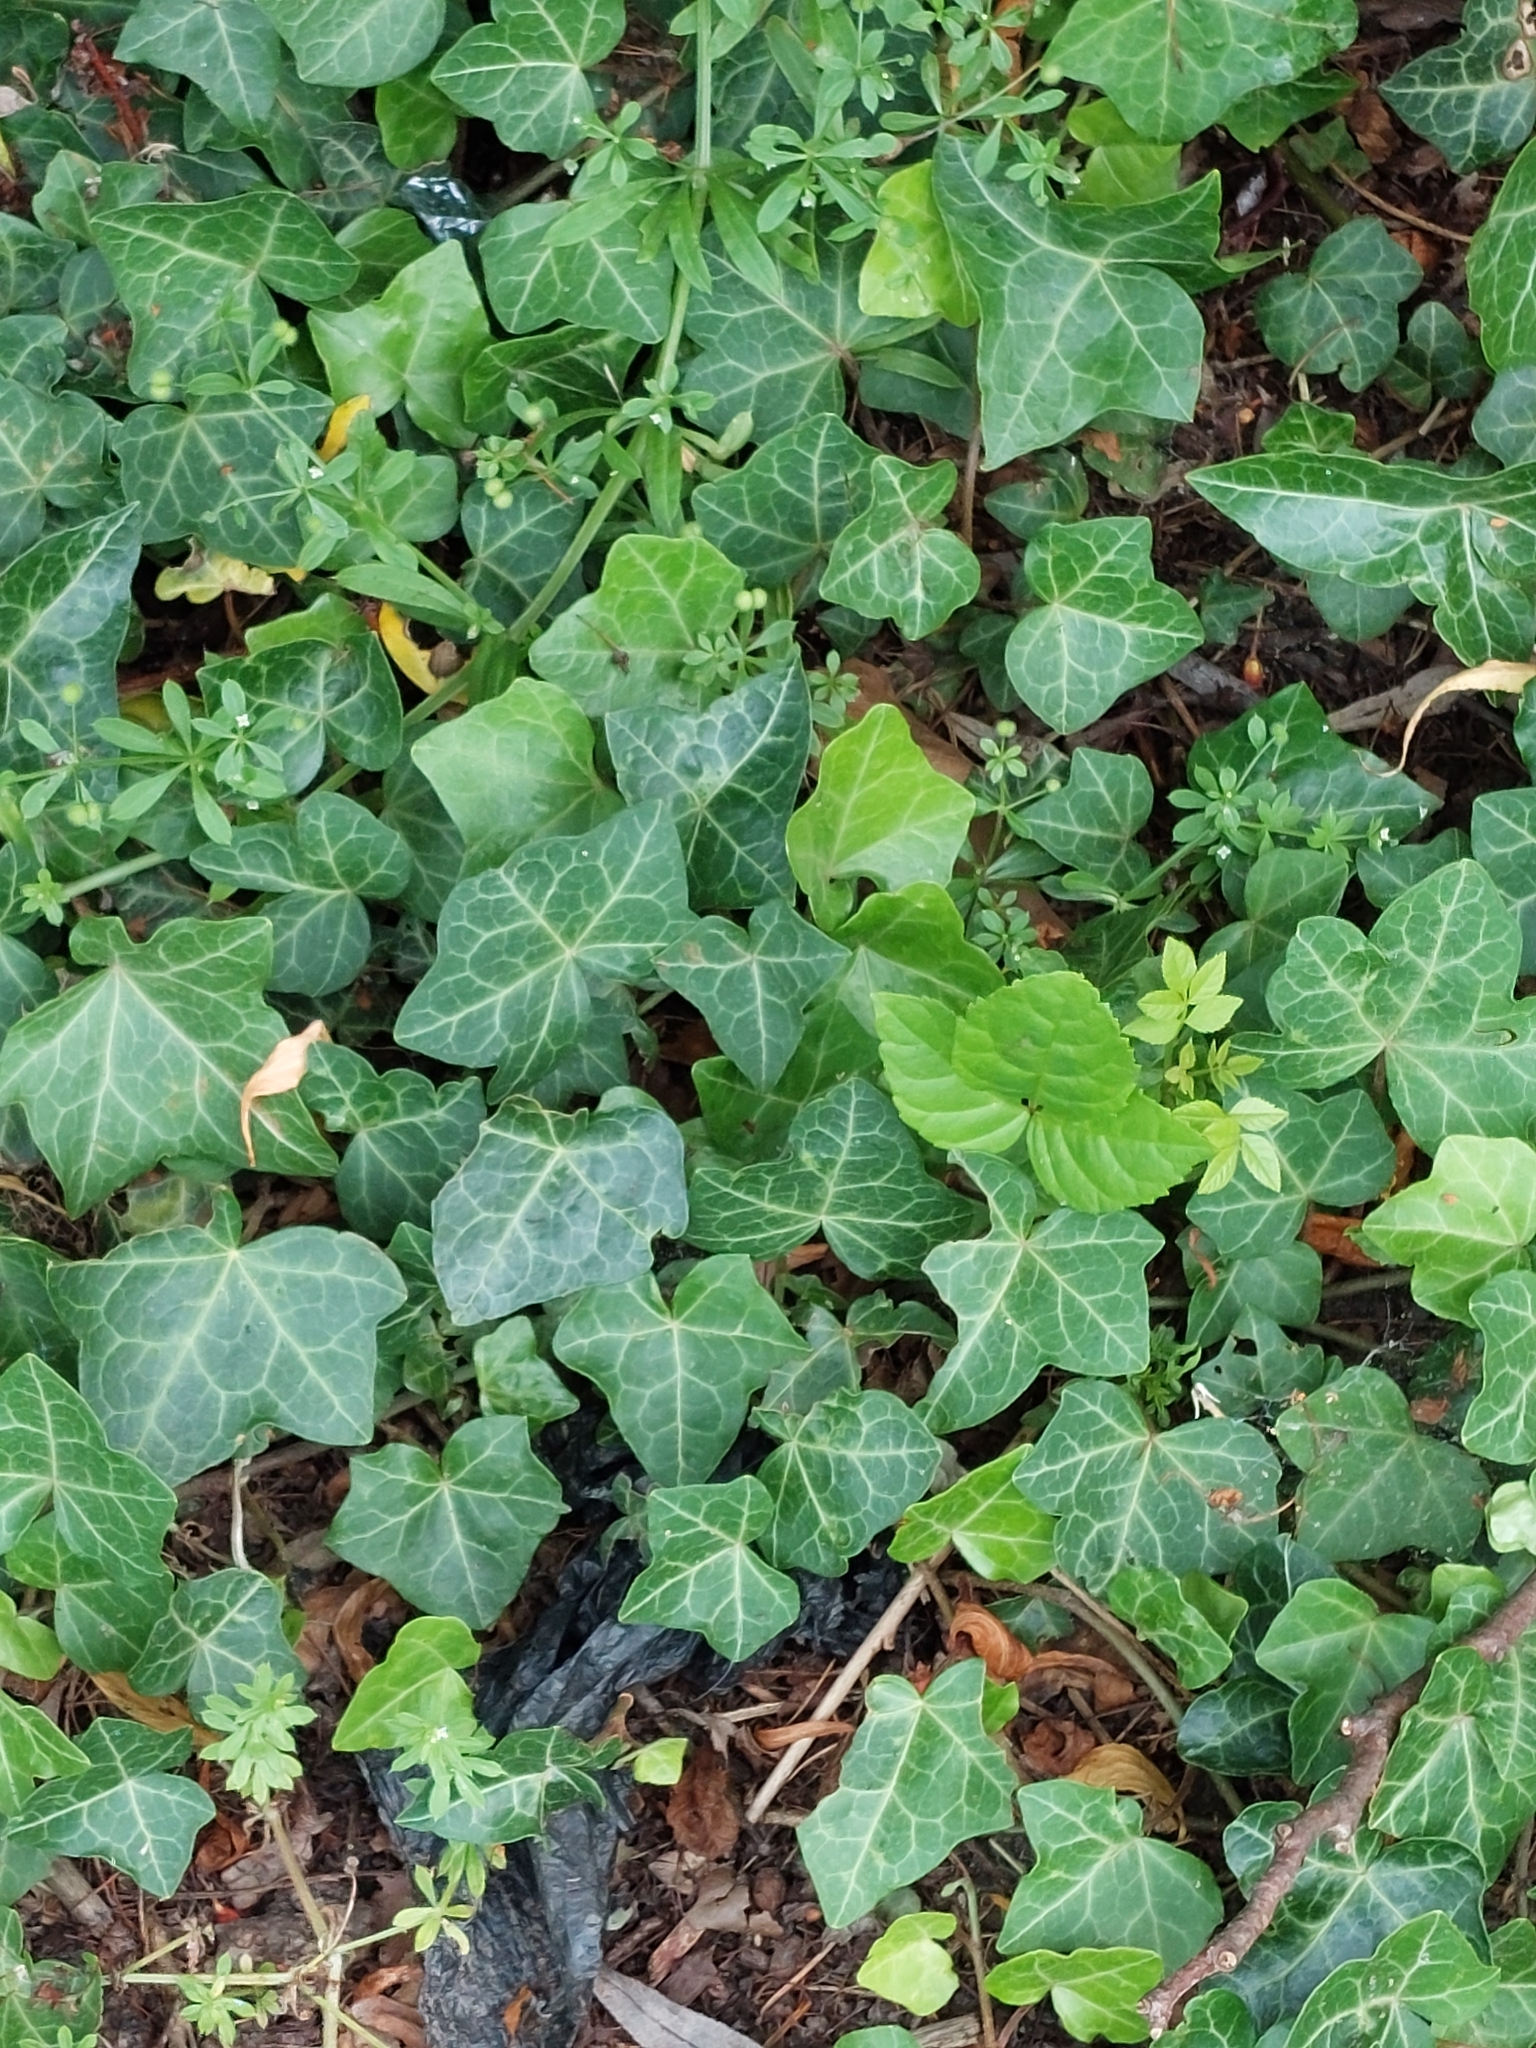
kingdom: Plantae
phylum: Tracheophyta
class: Magnoliopsida
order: Apiales
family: Araliaceae
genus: Hedera
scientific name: Hedera helix
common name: Ivy
